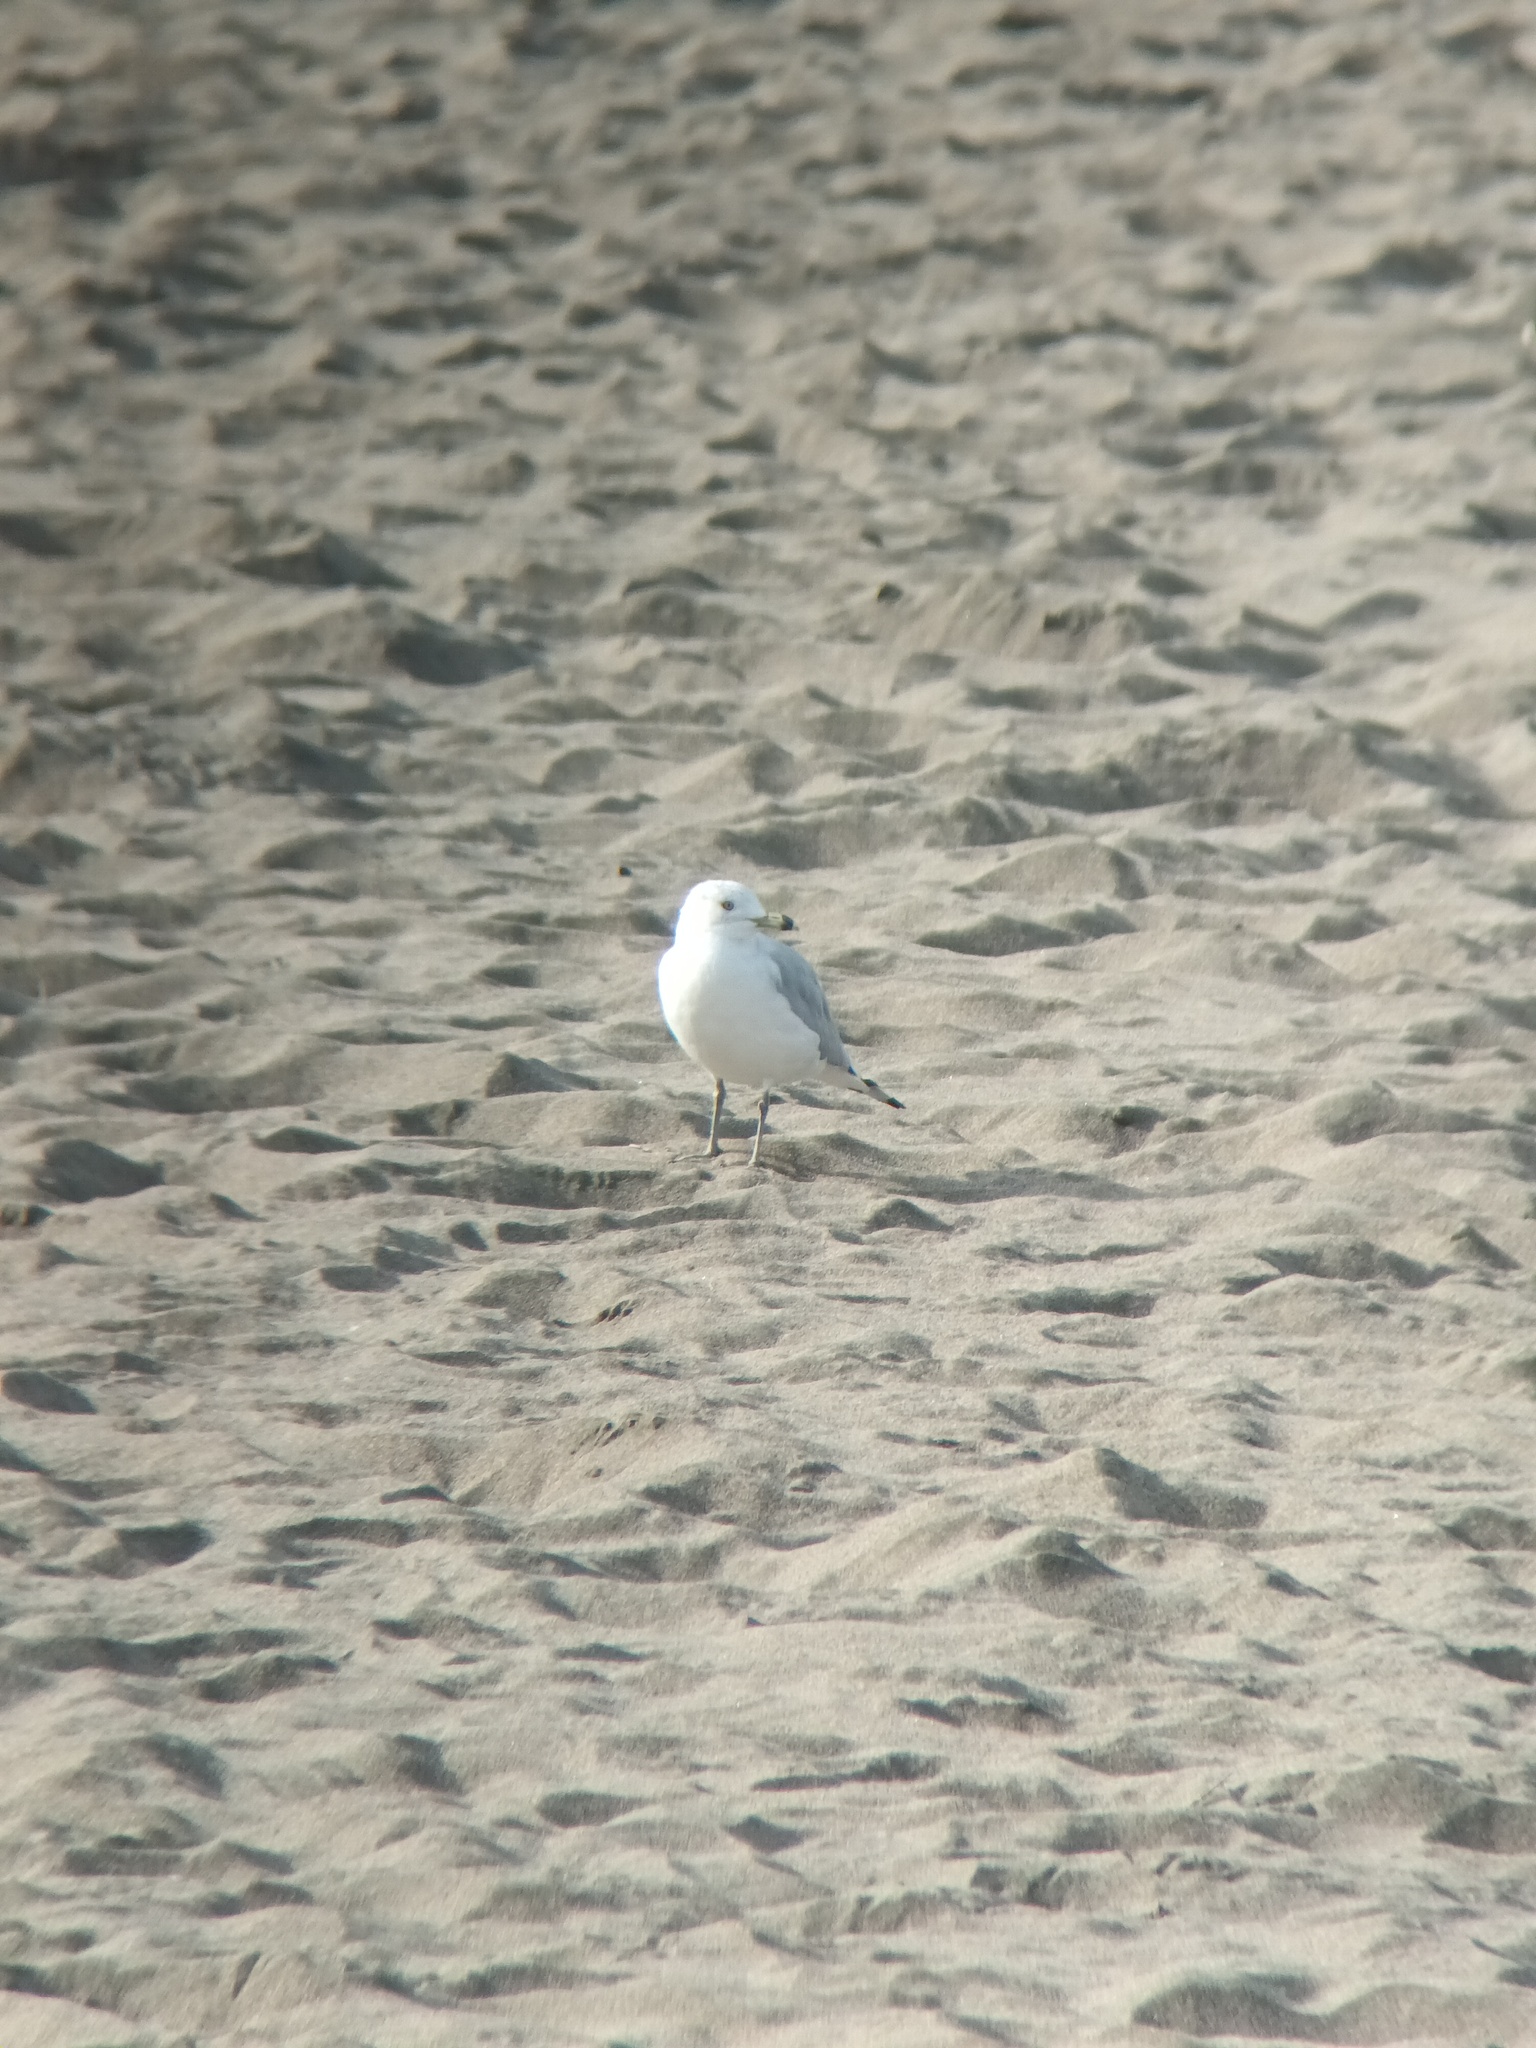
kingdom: Animalia
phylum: Chordata
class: Aves
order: Charadriiformes
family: Laridae
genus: Larus
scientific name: Larus delawarensis
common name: Ring-billed gull
